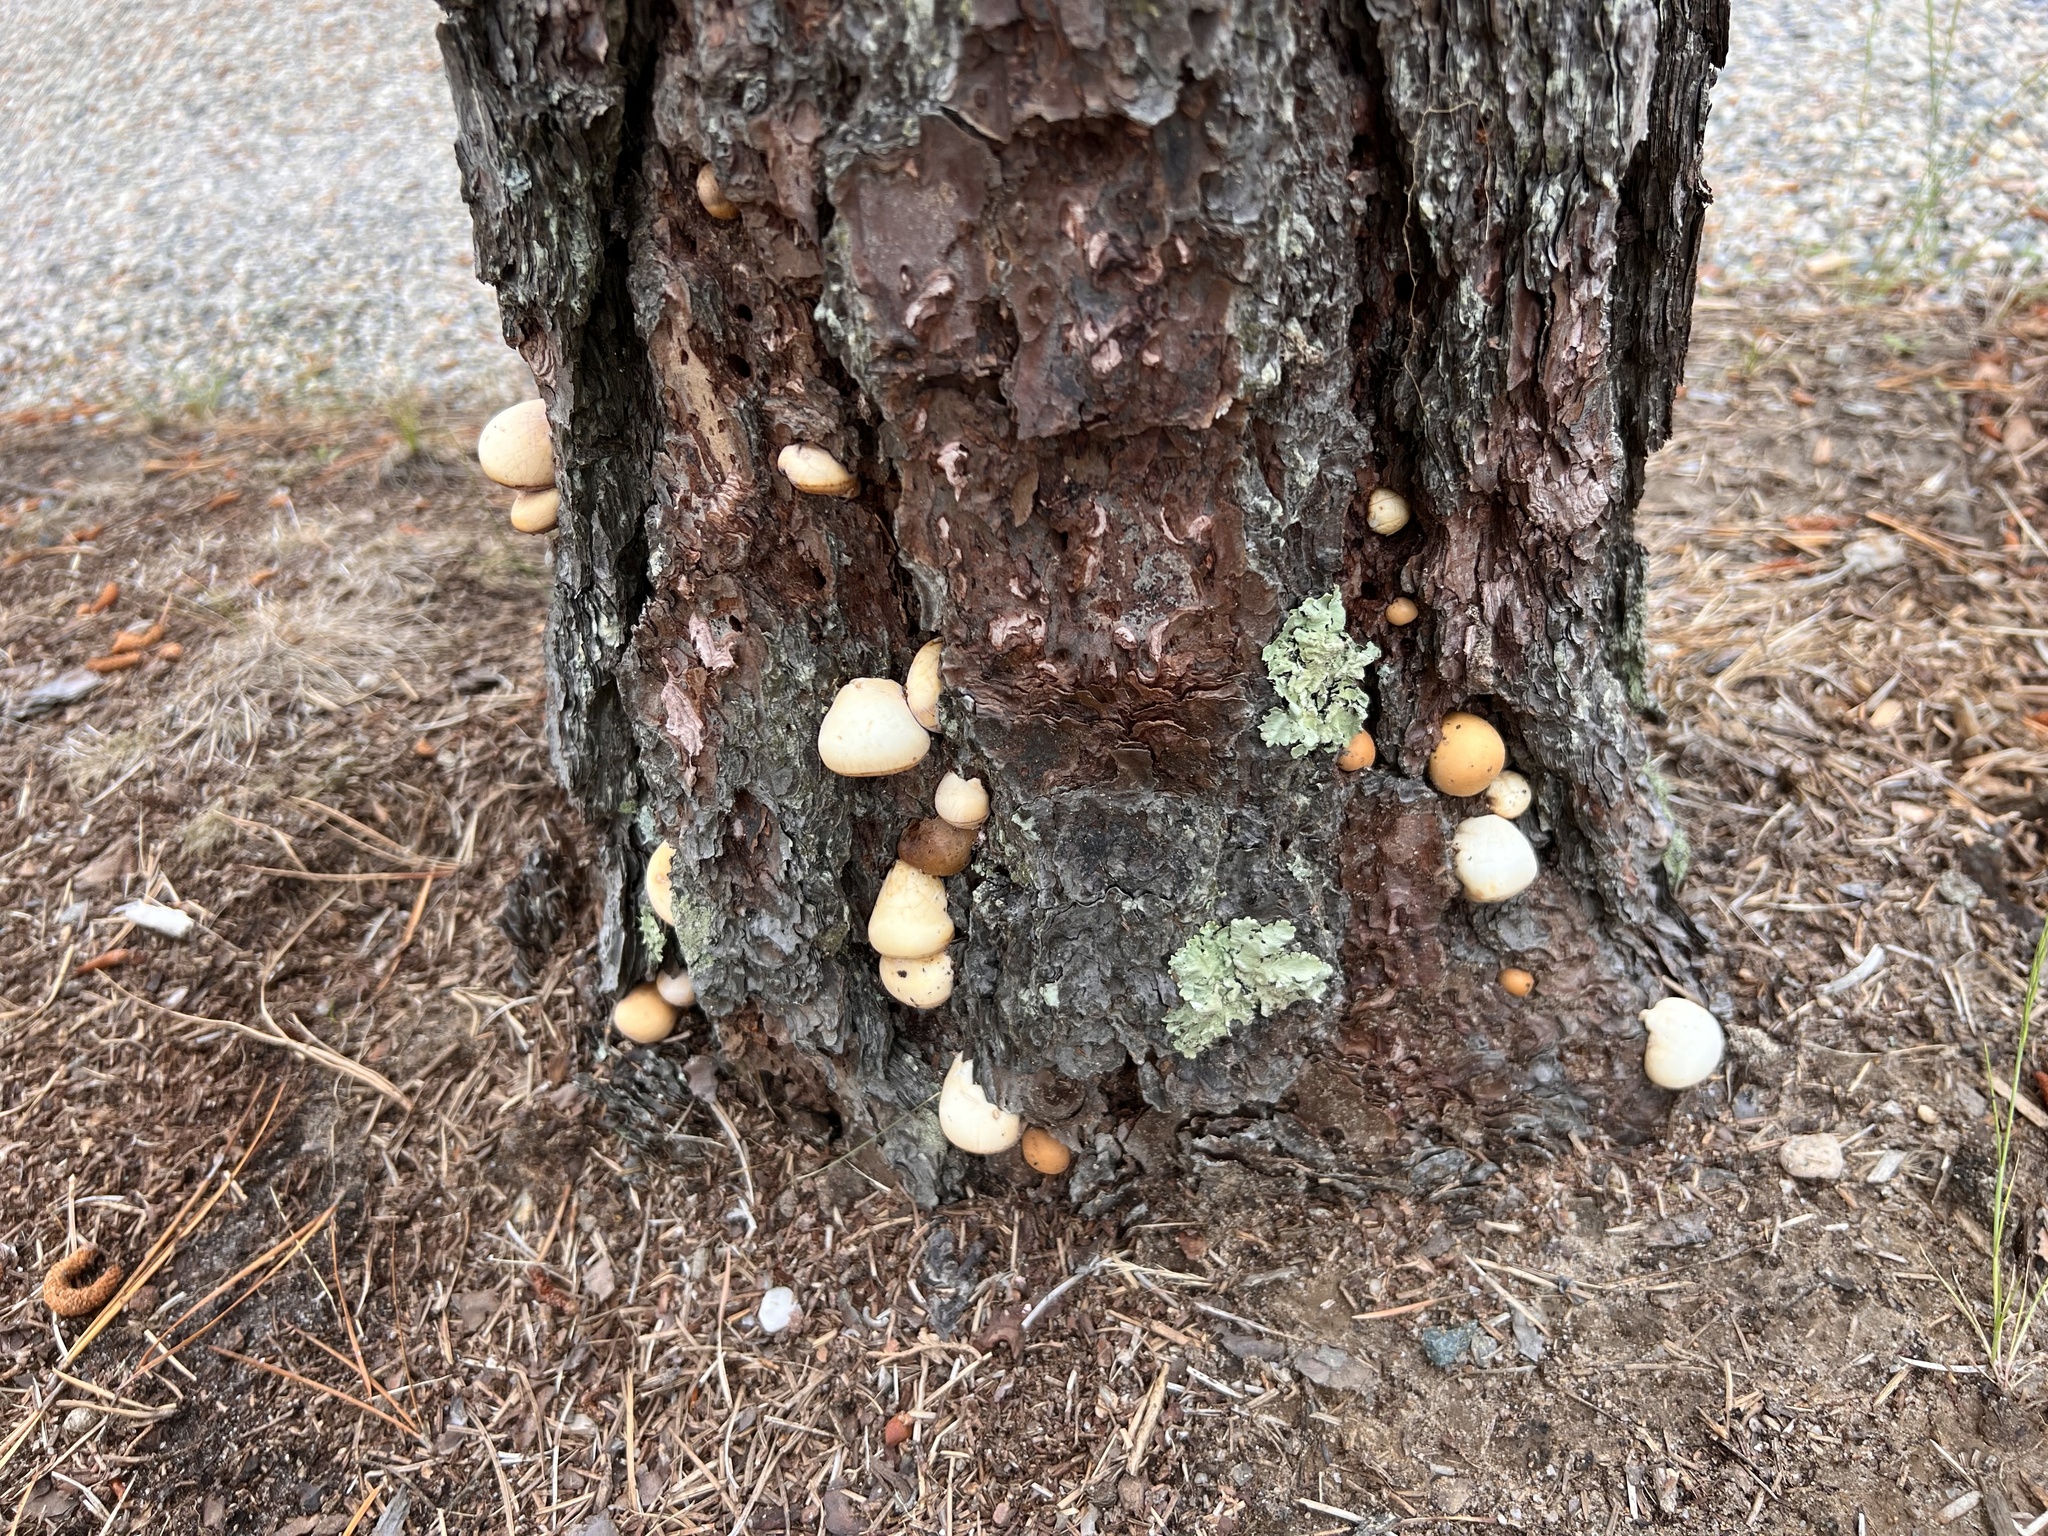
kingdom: Fungi
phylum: Basidiomycota
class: Agaricomycetes
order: Polyporales
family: Polyporaceae
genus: Cryptoporus
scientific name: Cryptoporus volvatus
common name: Veiled polypore
